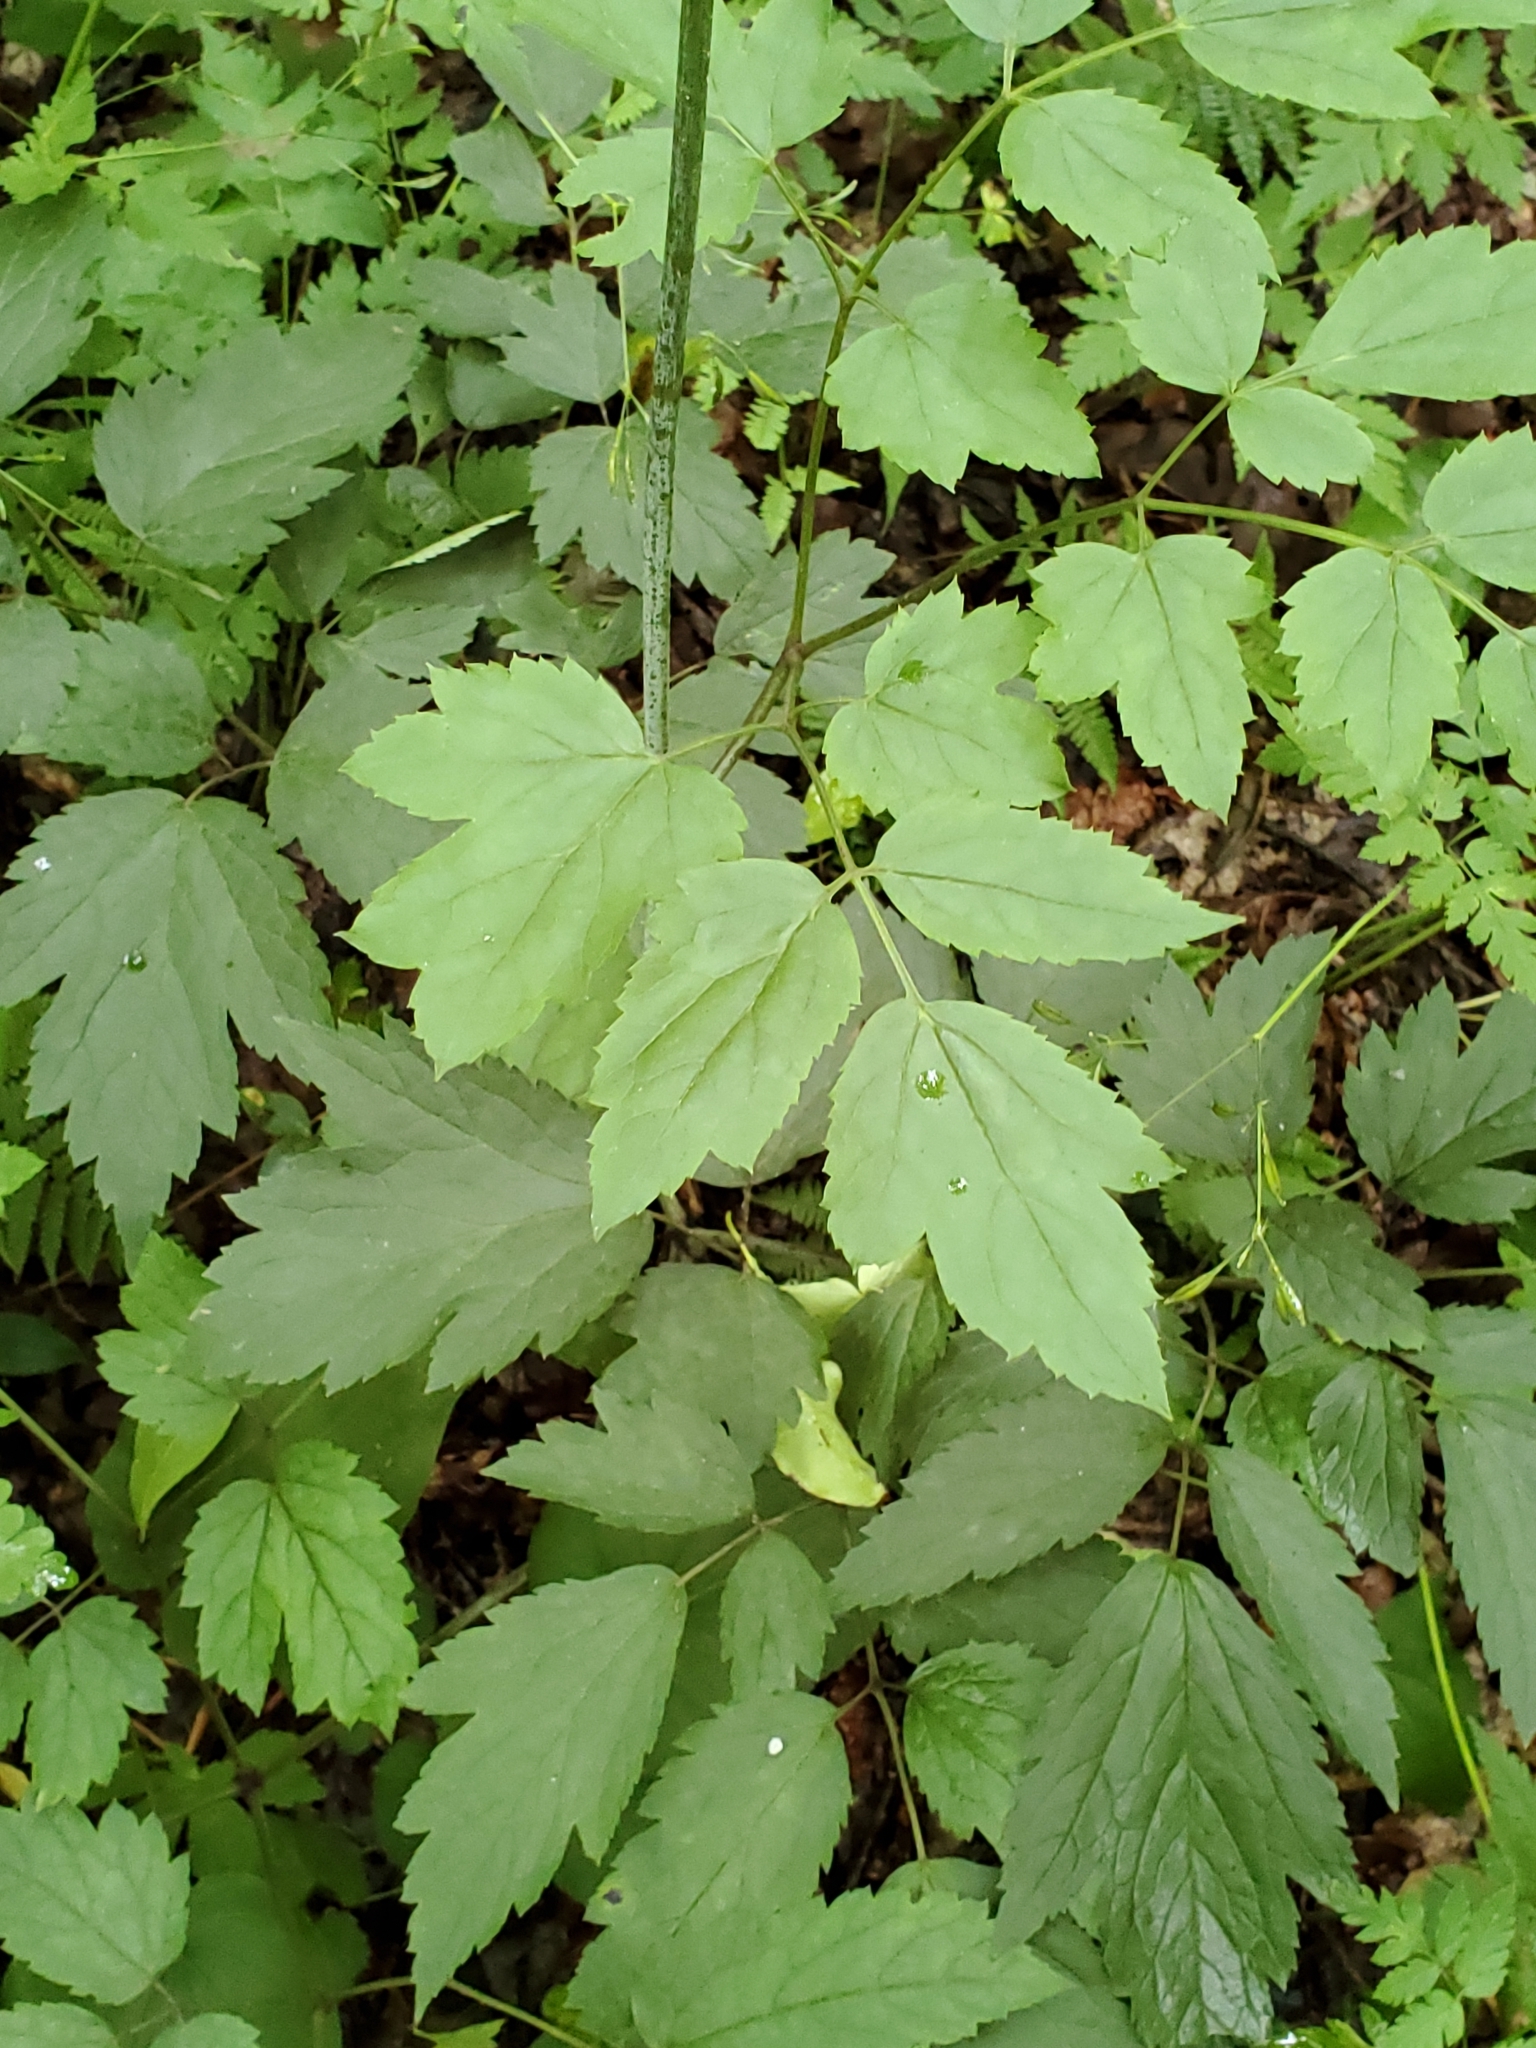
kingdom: Plantae
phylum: Tracheophyta
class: Magnoliopsida
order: Ranunculales
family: Ranunculaceae
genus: Actaea
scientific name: Actaea racemosa
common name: Black cohosh
